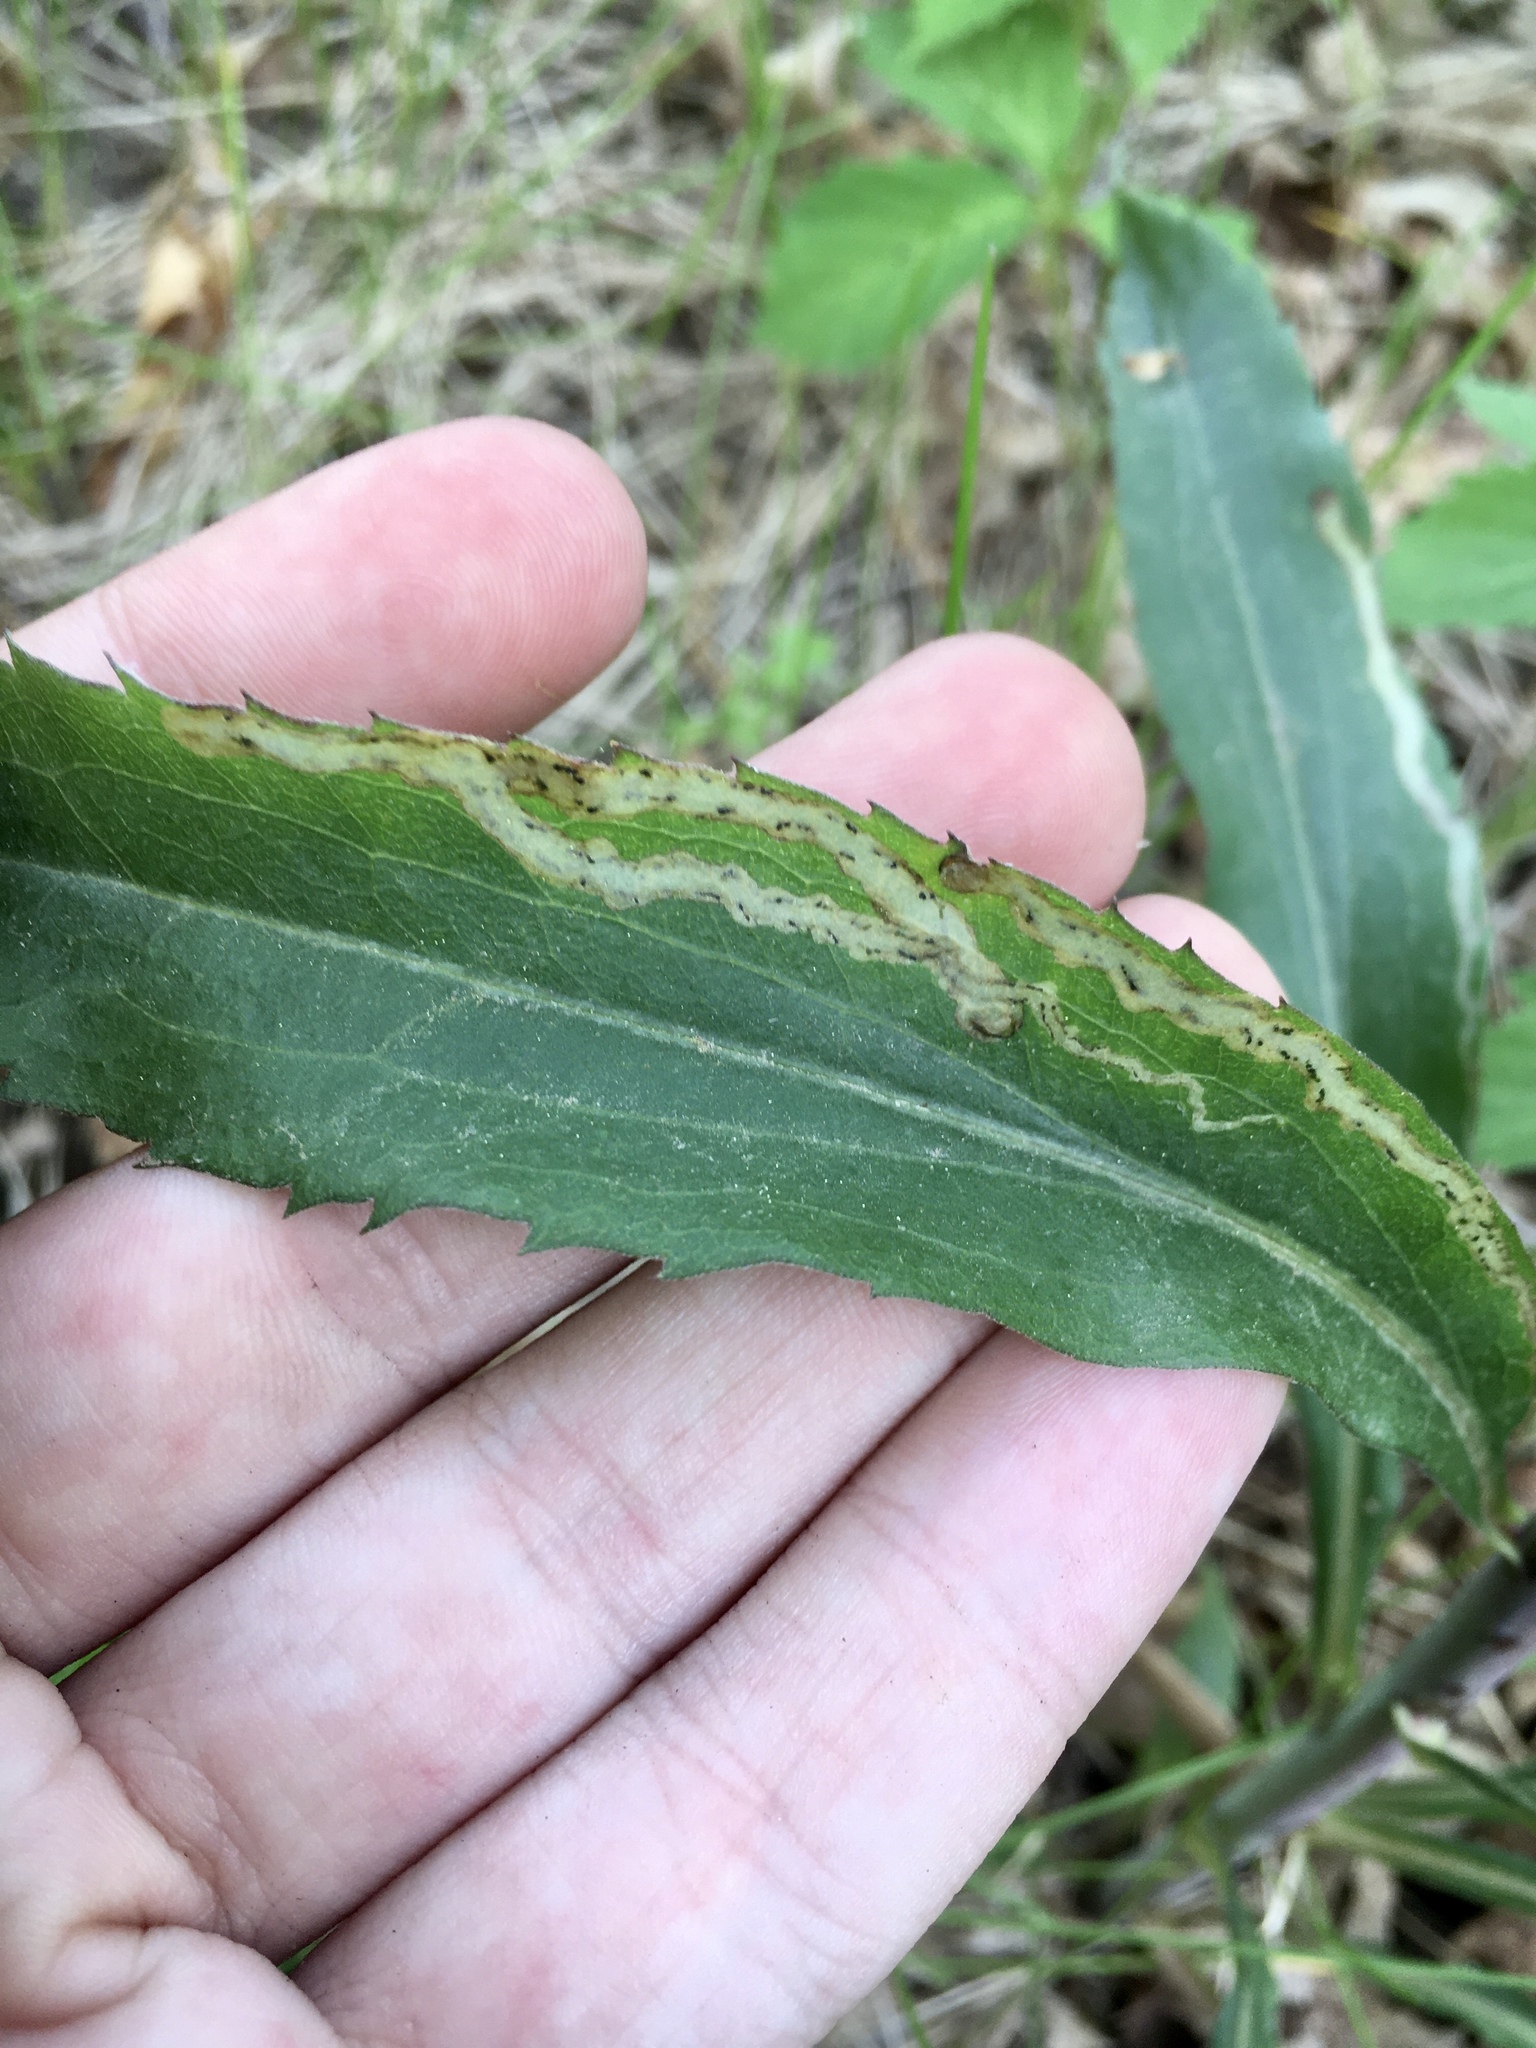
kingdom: Animalia
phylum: Arthropoda
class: Insecta
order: Diptera
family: Agromyzidae
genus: Phytomyza
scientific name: Phytomyza solidaginophaga
